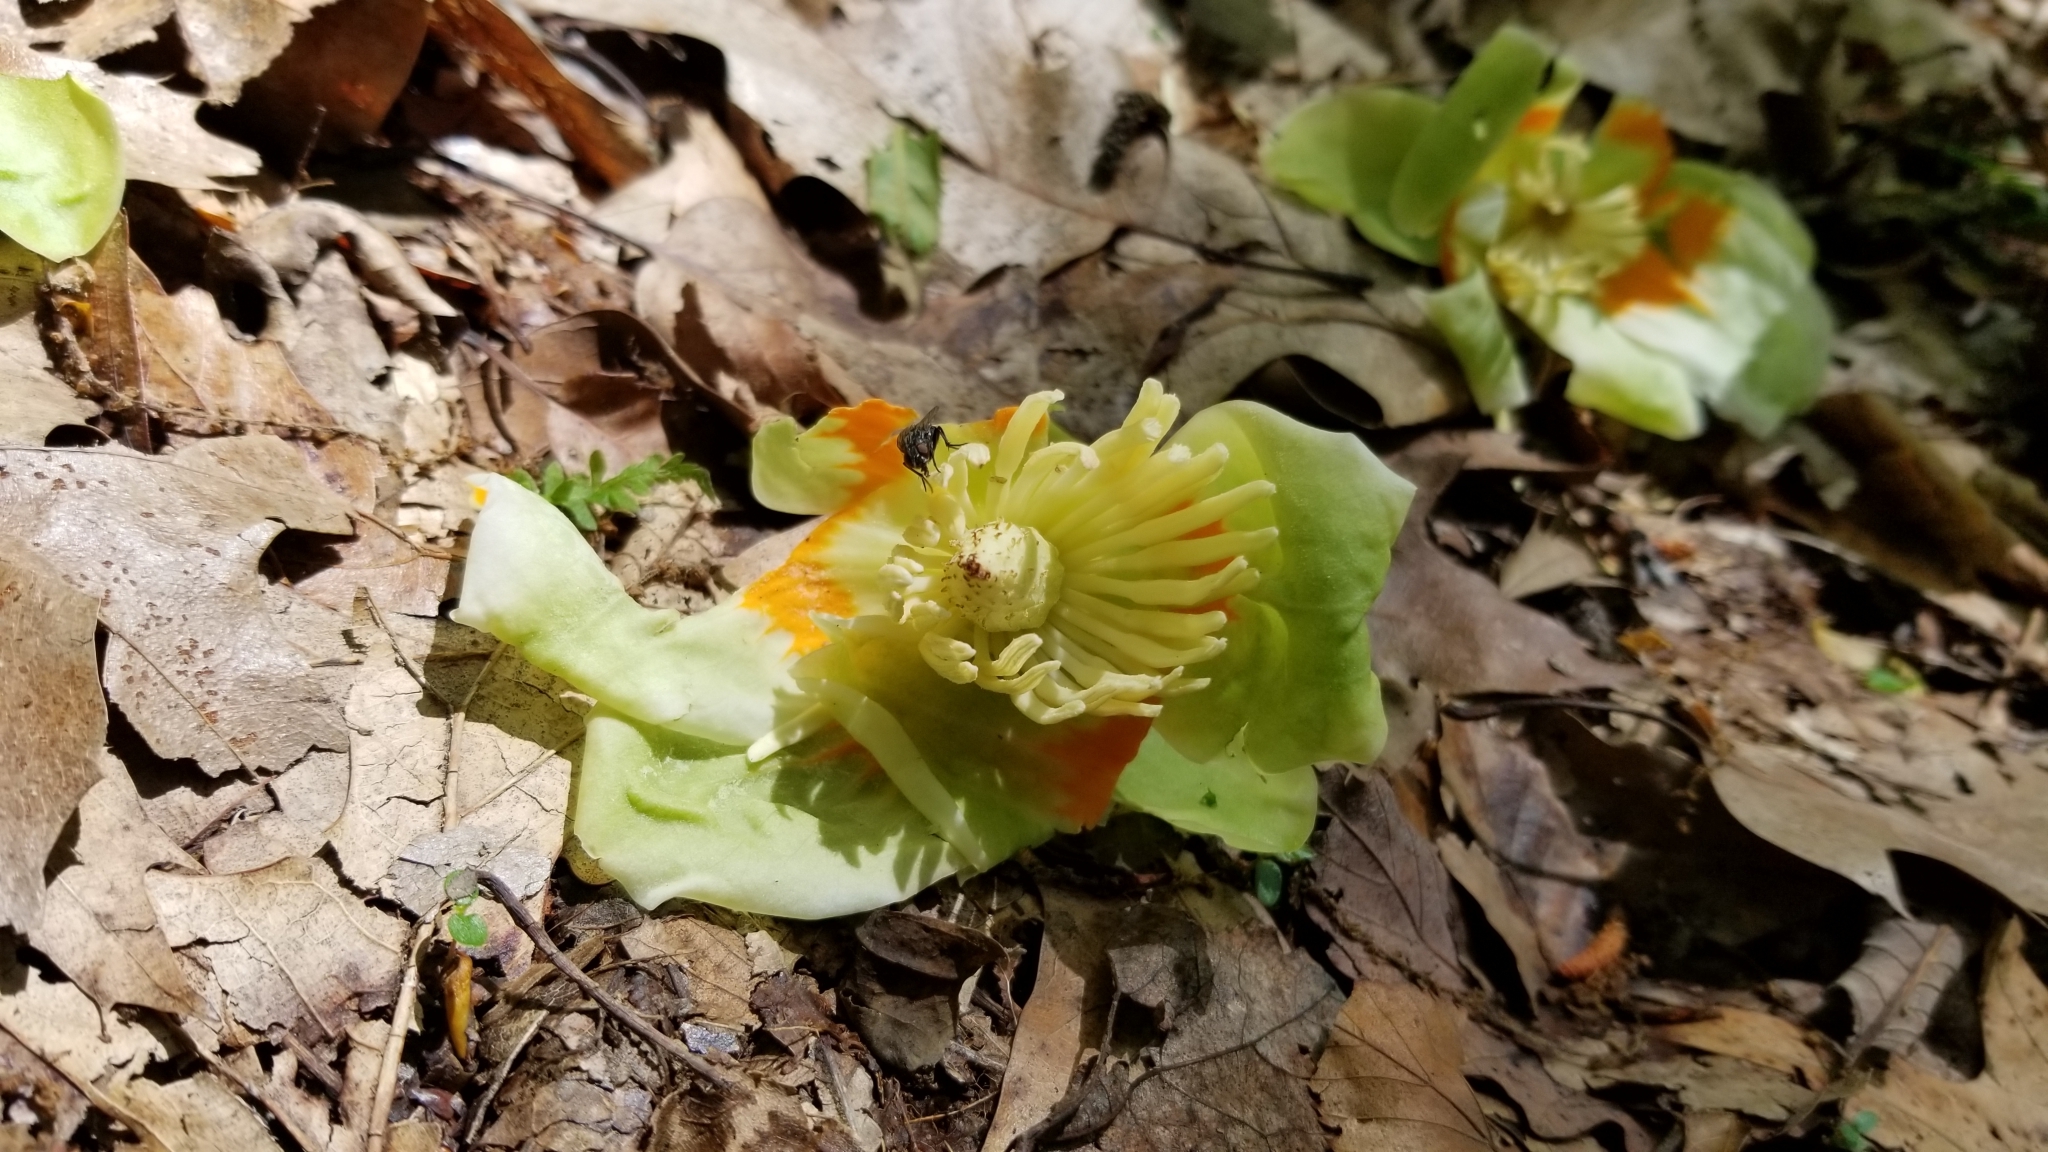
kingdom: Plantae
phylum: Tracheophyta
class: Magnoliopsida
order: Magnoliales
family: Magnoliaceae
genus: Liriodendron
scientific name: Liriodendron tulipifera
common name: Tulip tree
